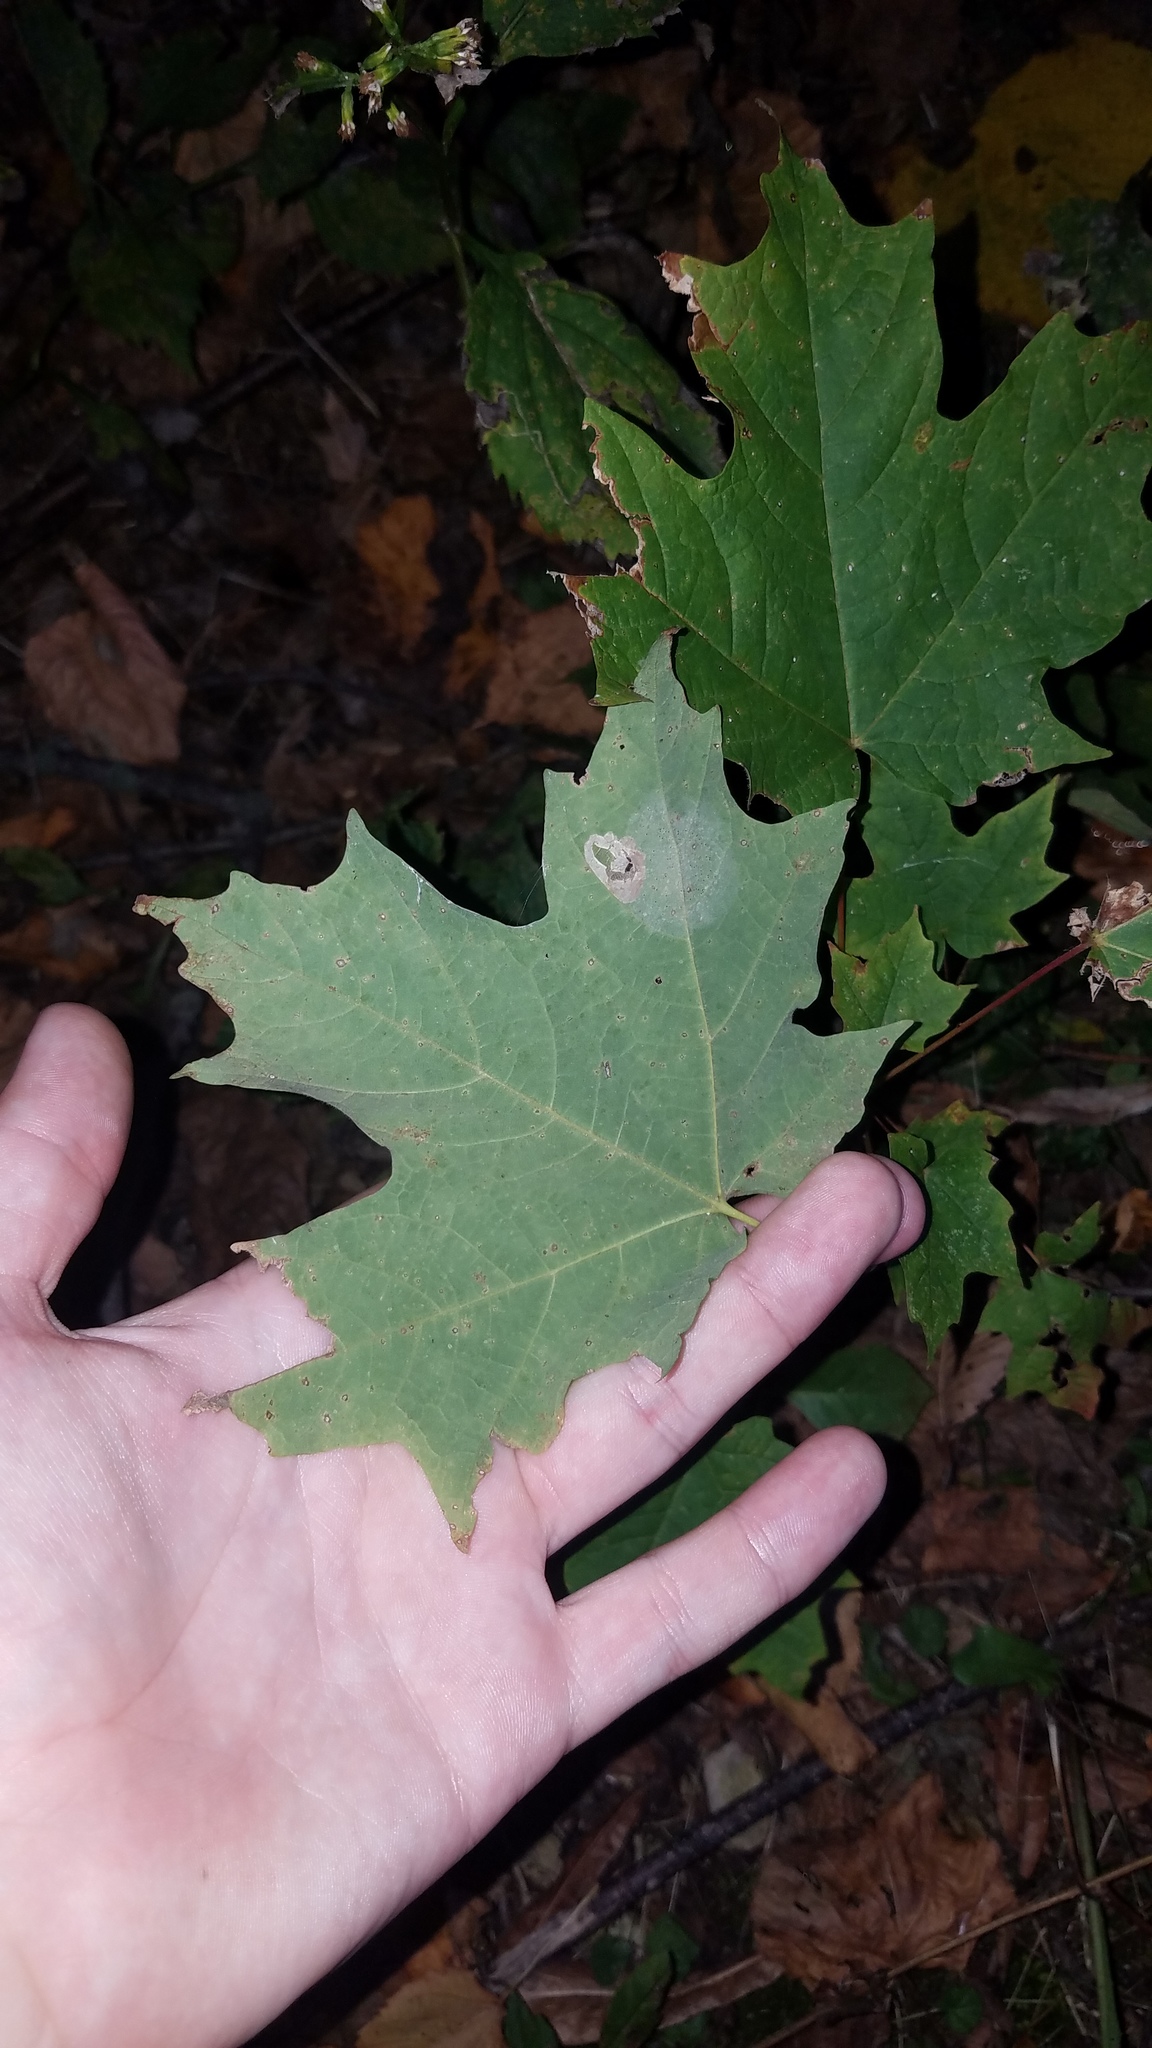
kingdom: Plantae
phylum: Tracheophyta
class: Magnoliopsida
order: Sapindales
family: Sapindaceae
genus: Acer
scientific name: Acer saccharum
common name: Sugar maple
